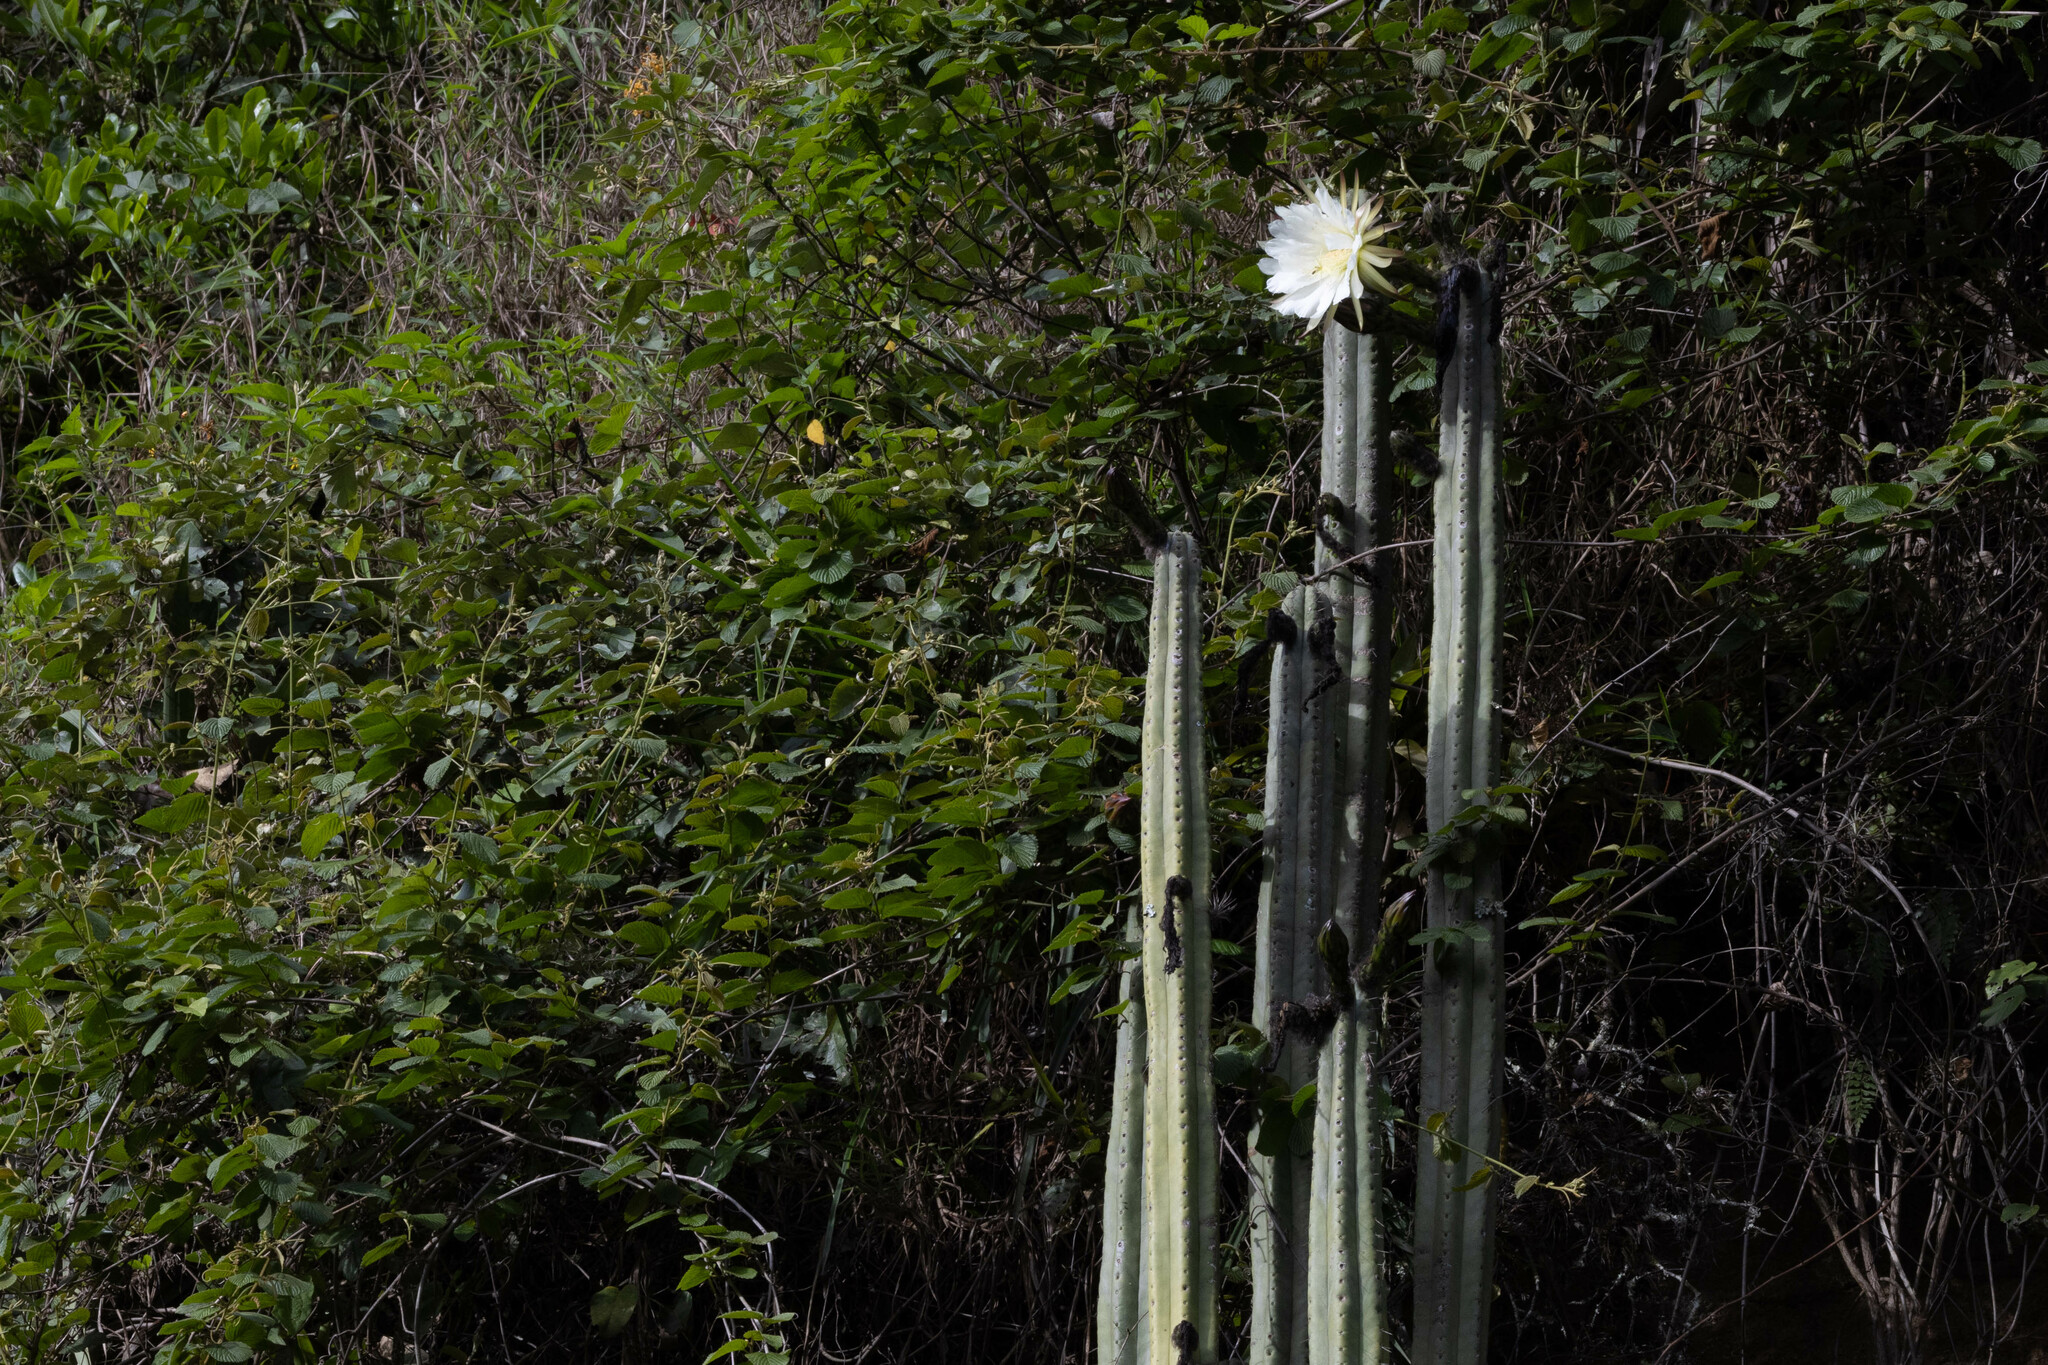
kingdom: Plantae
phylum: Tracheophyta
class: Magnoliopsida
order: Caryophyllales
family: Cactaceae
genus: Trichocereus
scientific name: Trichocereus macrogonus
